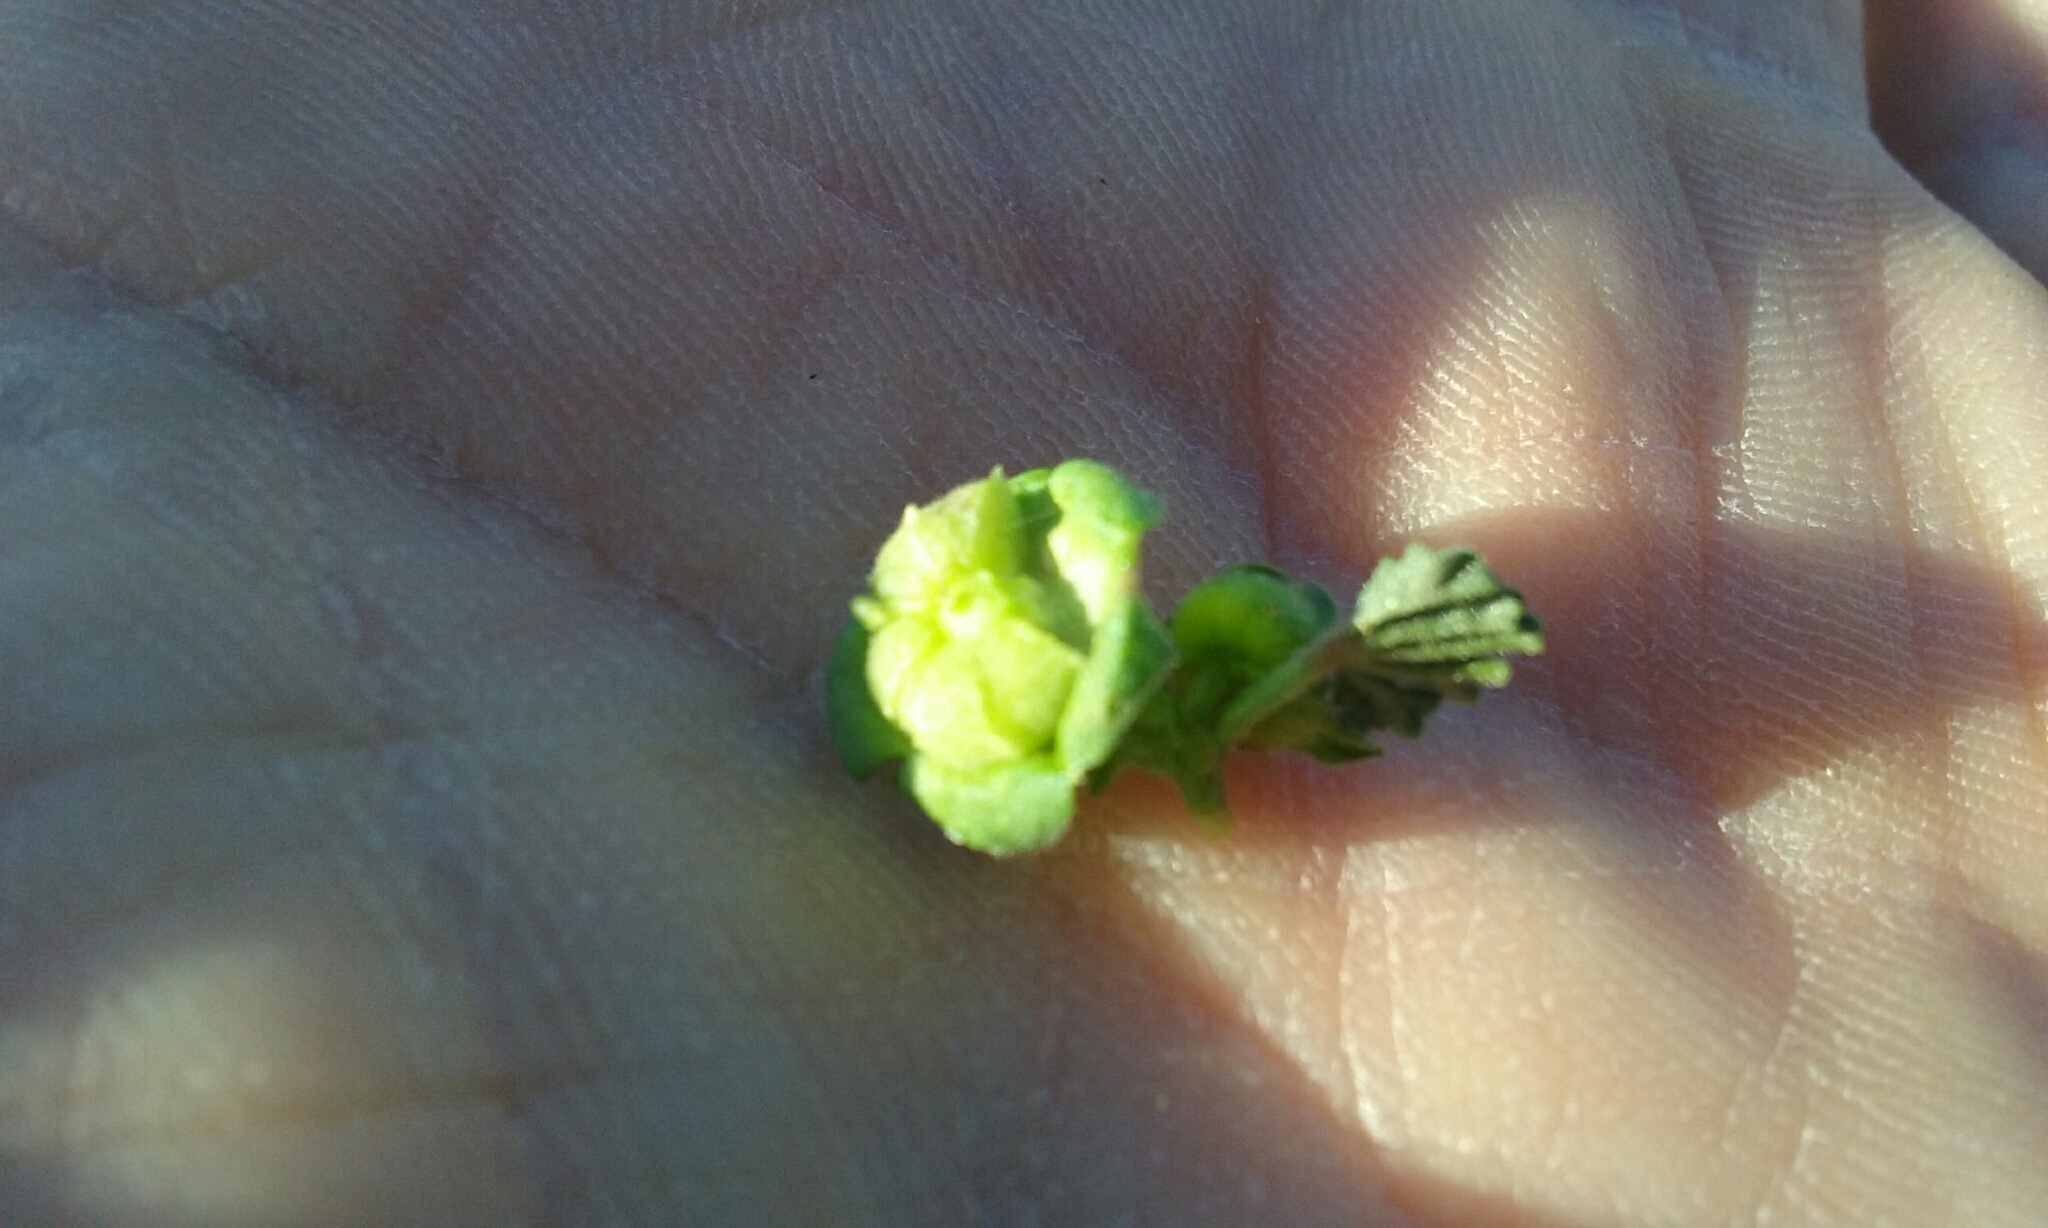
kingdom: Plantae
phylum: Tracheophyta
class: Magnoliopsida
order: Malvales
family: Malvaceae
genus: Malva
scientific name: Malva parviflora
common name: Least mallow
